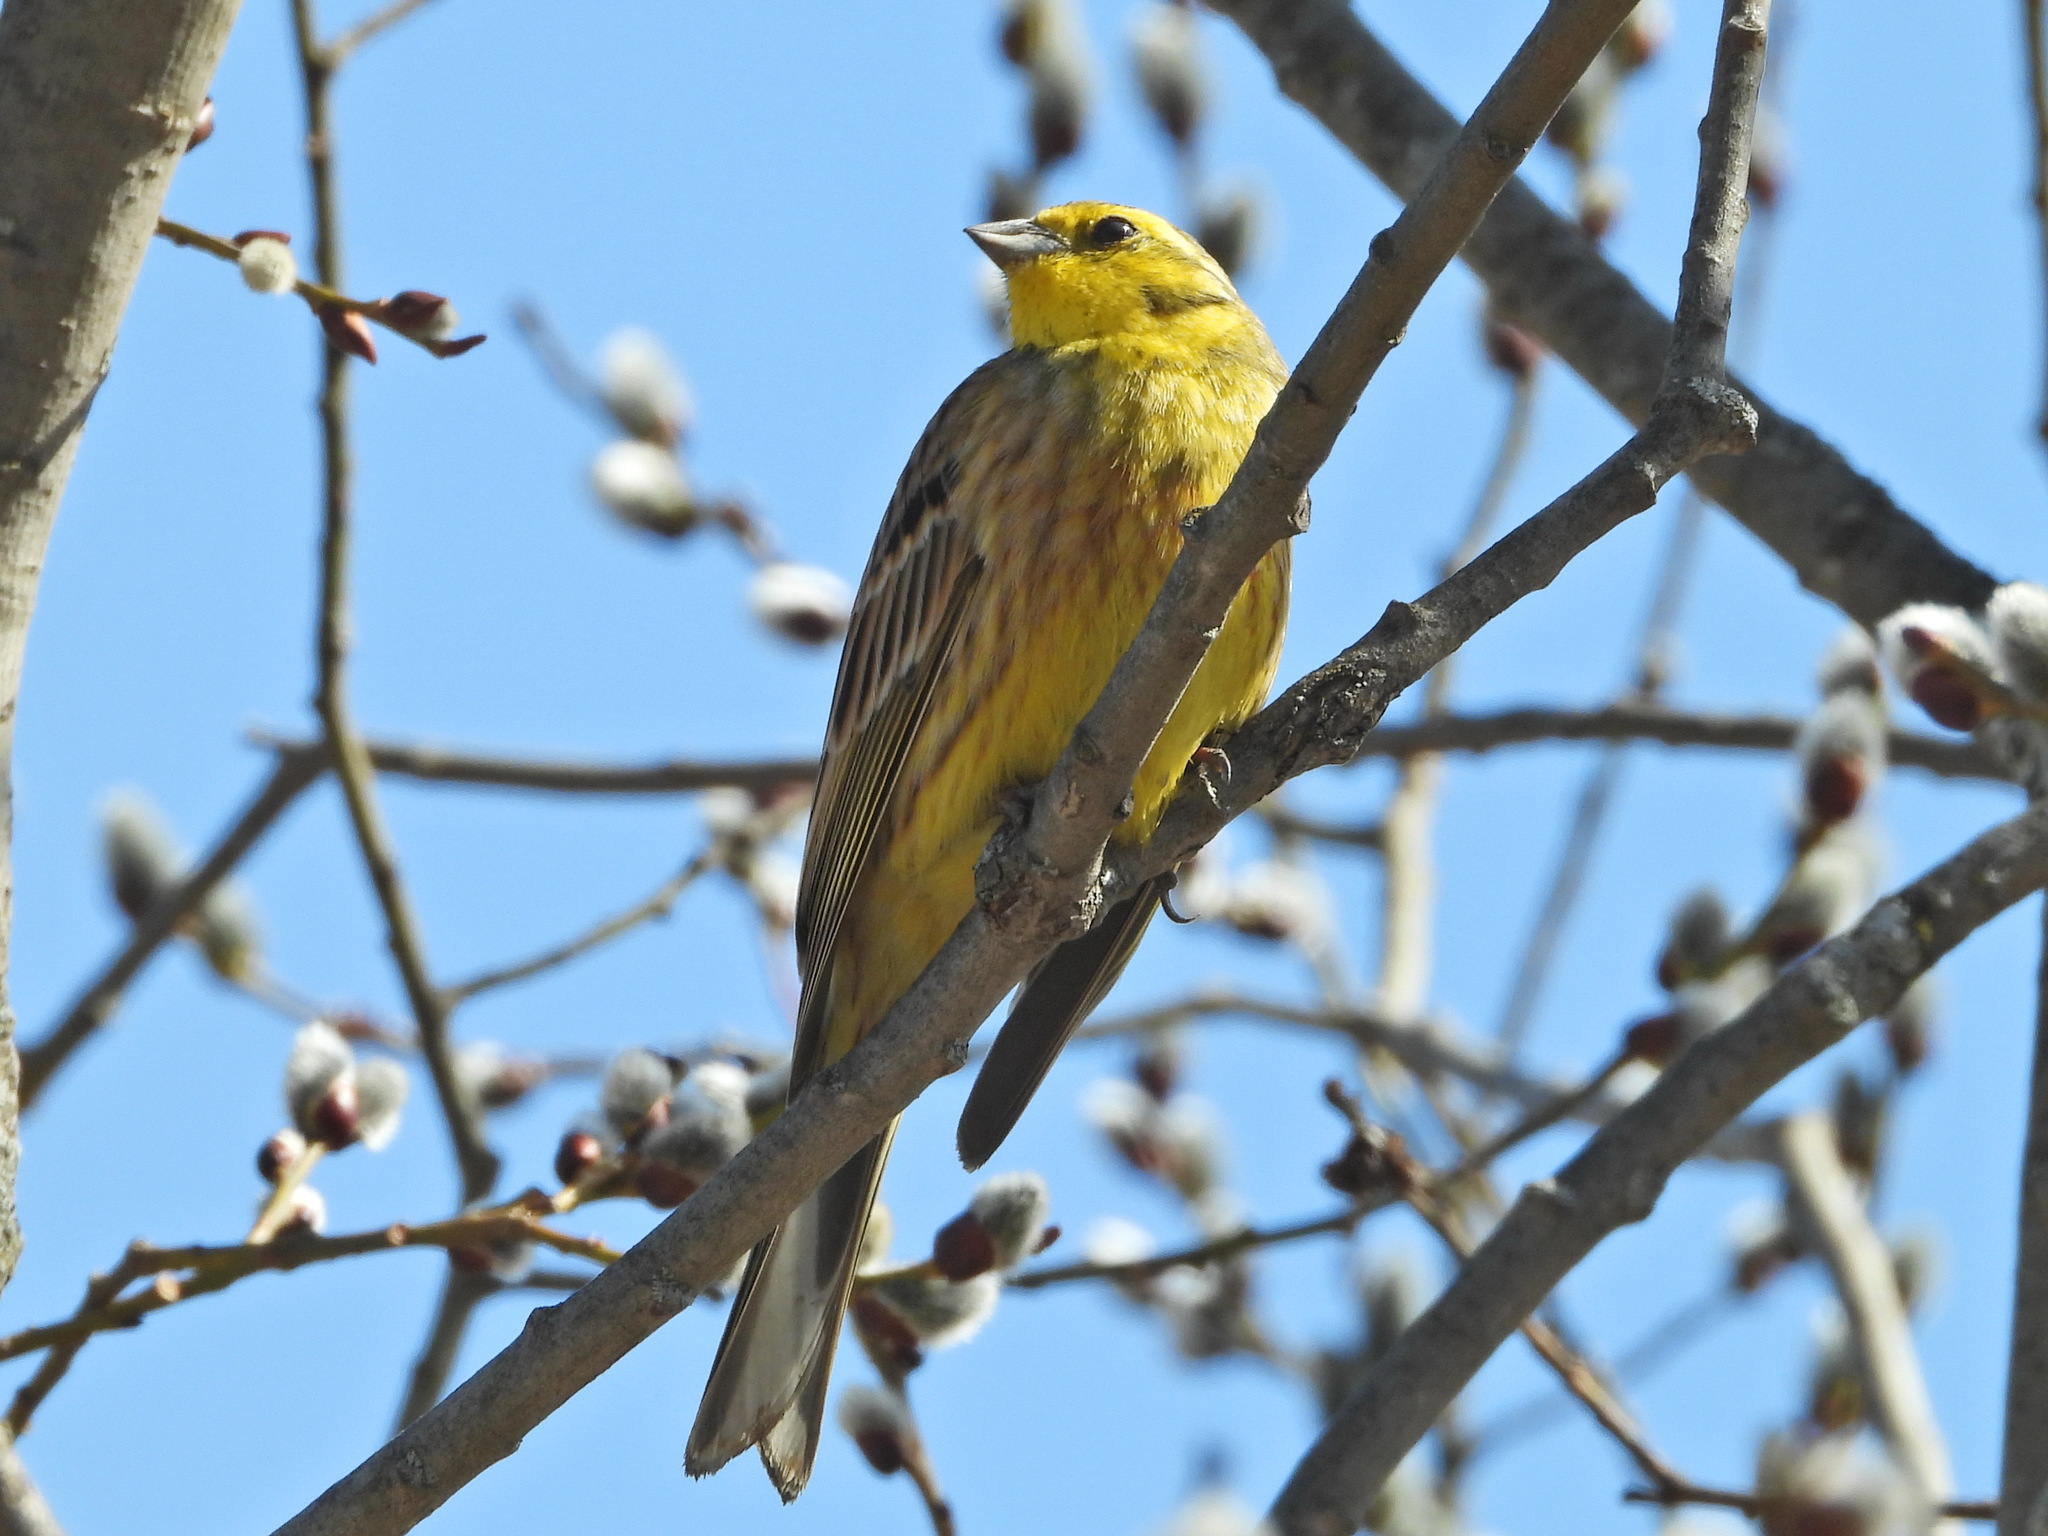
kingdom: Animalia
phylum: Chordata
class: Aves
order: Passeriformes
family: Emberizidae
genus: Emberiza
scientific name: Emberiza citrinella
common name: Yellowhammer
